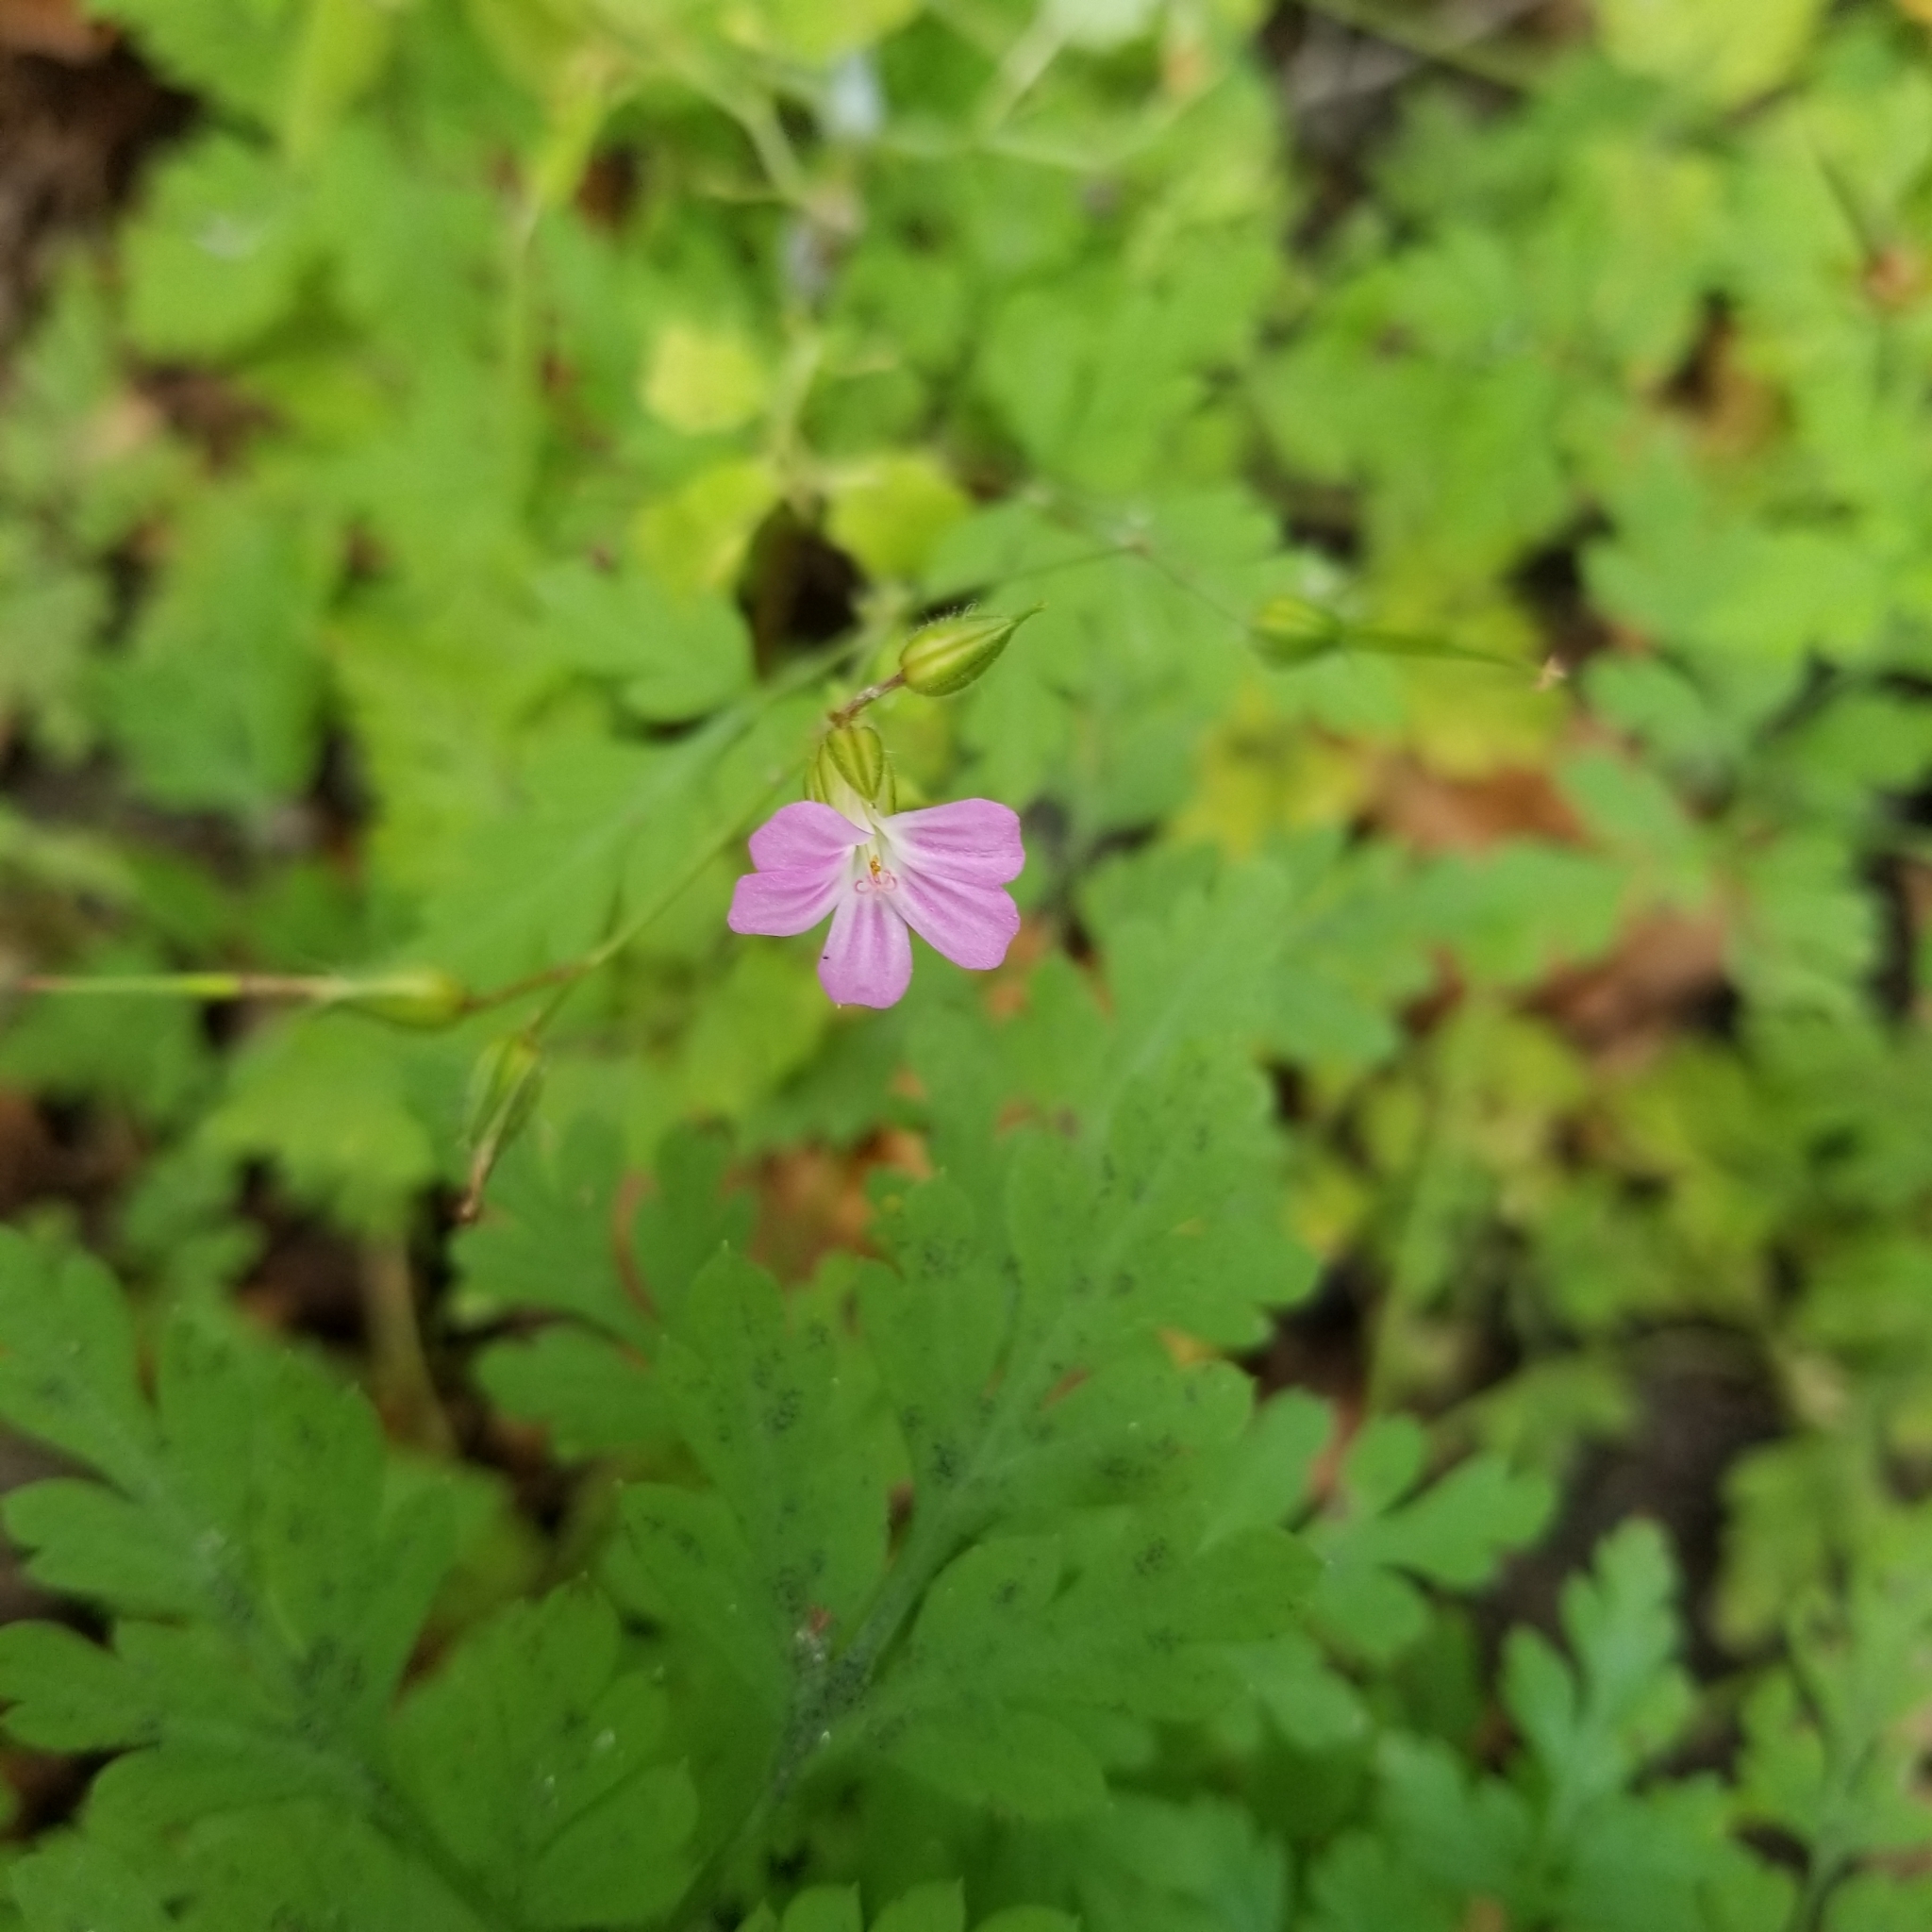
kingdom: Plantae
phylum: Tracheophyta
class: Magnoliopsida
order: Geraniales
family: Geraniaceae
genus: Geranium
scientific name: Geranium robertianum
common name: Herb-robert
